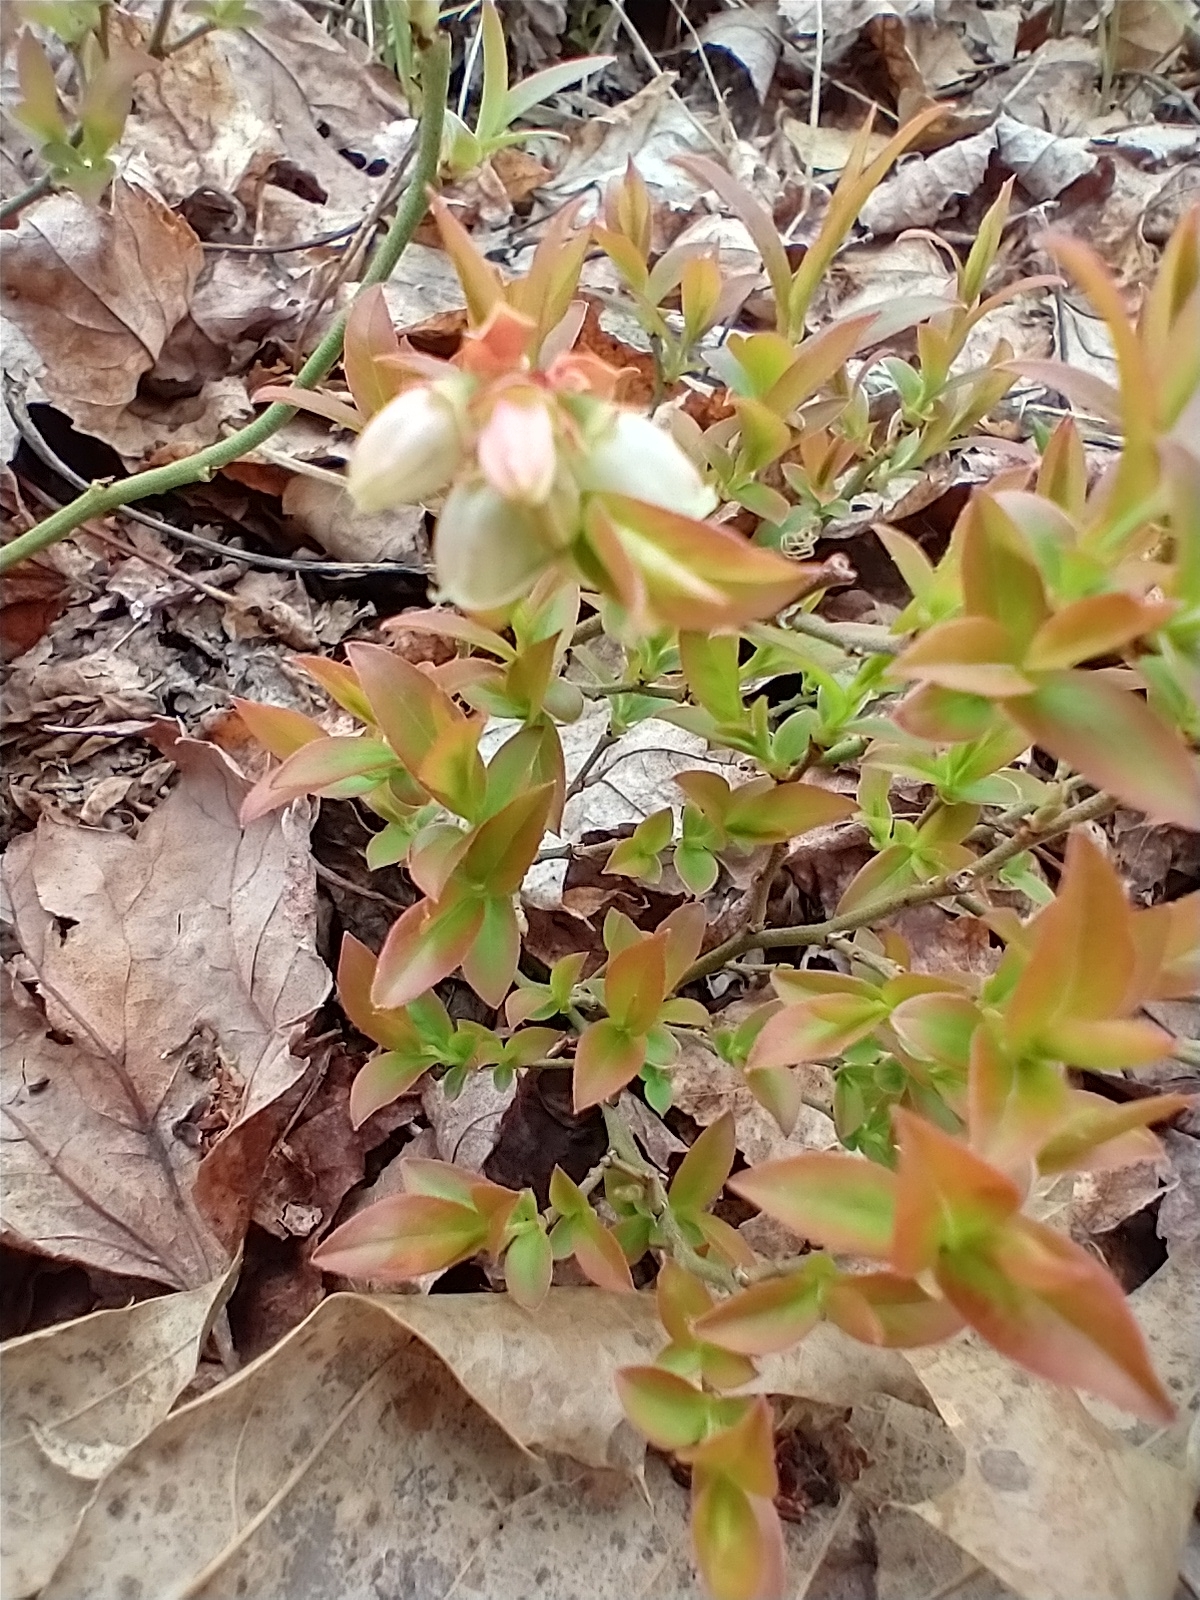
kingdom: Plantae
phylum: Tracheophyta
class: Magnoliopsida
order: Ericales
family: Ericaceae
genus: Vaccinium
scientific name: Vaccinium angustifolium
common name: Early lowbush blueberry
